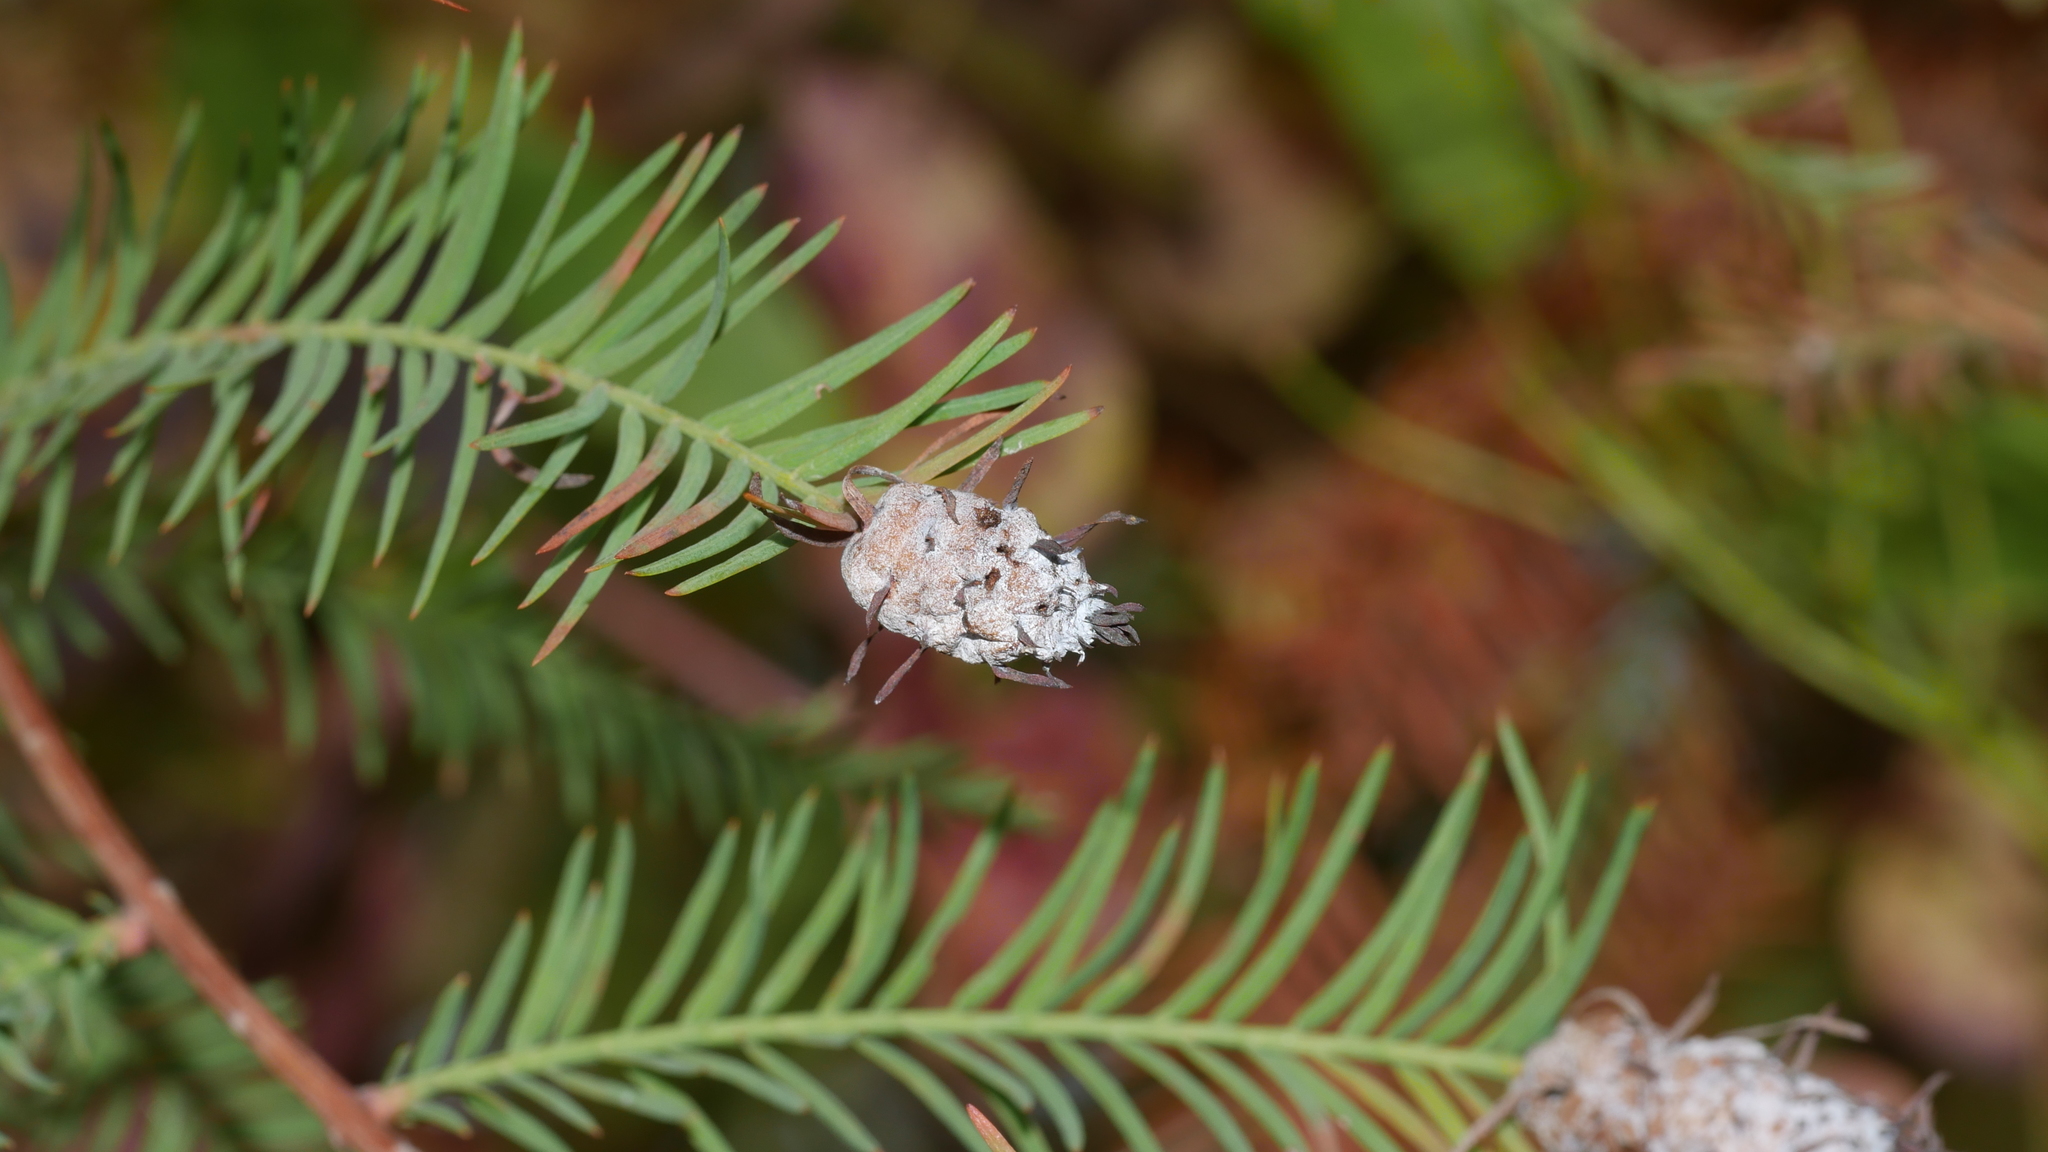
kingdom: Animalia
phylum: Arthropoda
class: Insecta
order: Diptera
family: Cecidomyiidae
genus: Taxodiomyia
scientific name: Taxodiomyia cupressiananassa
